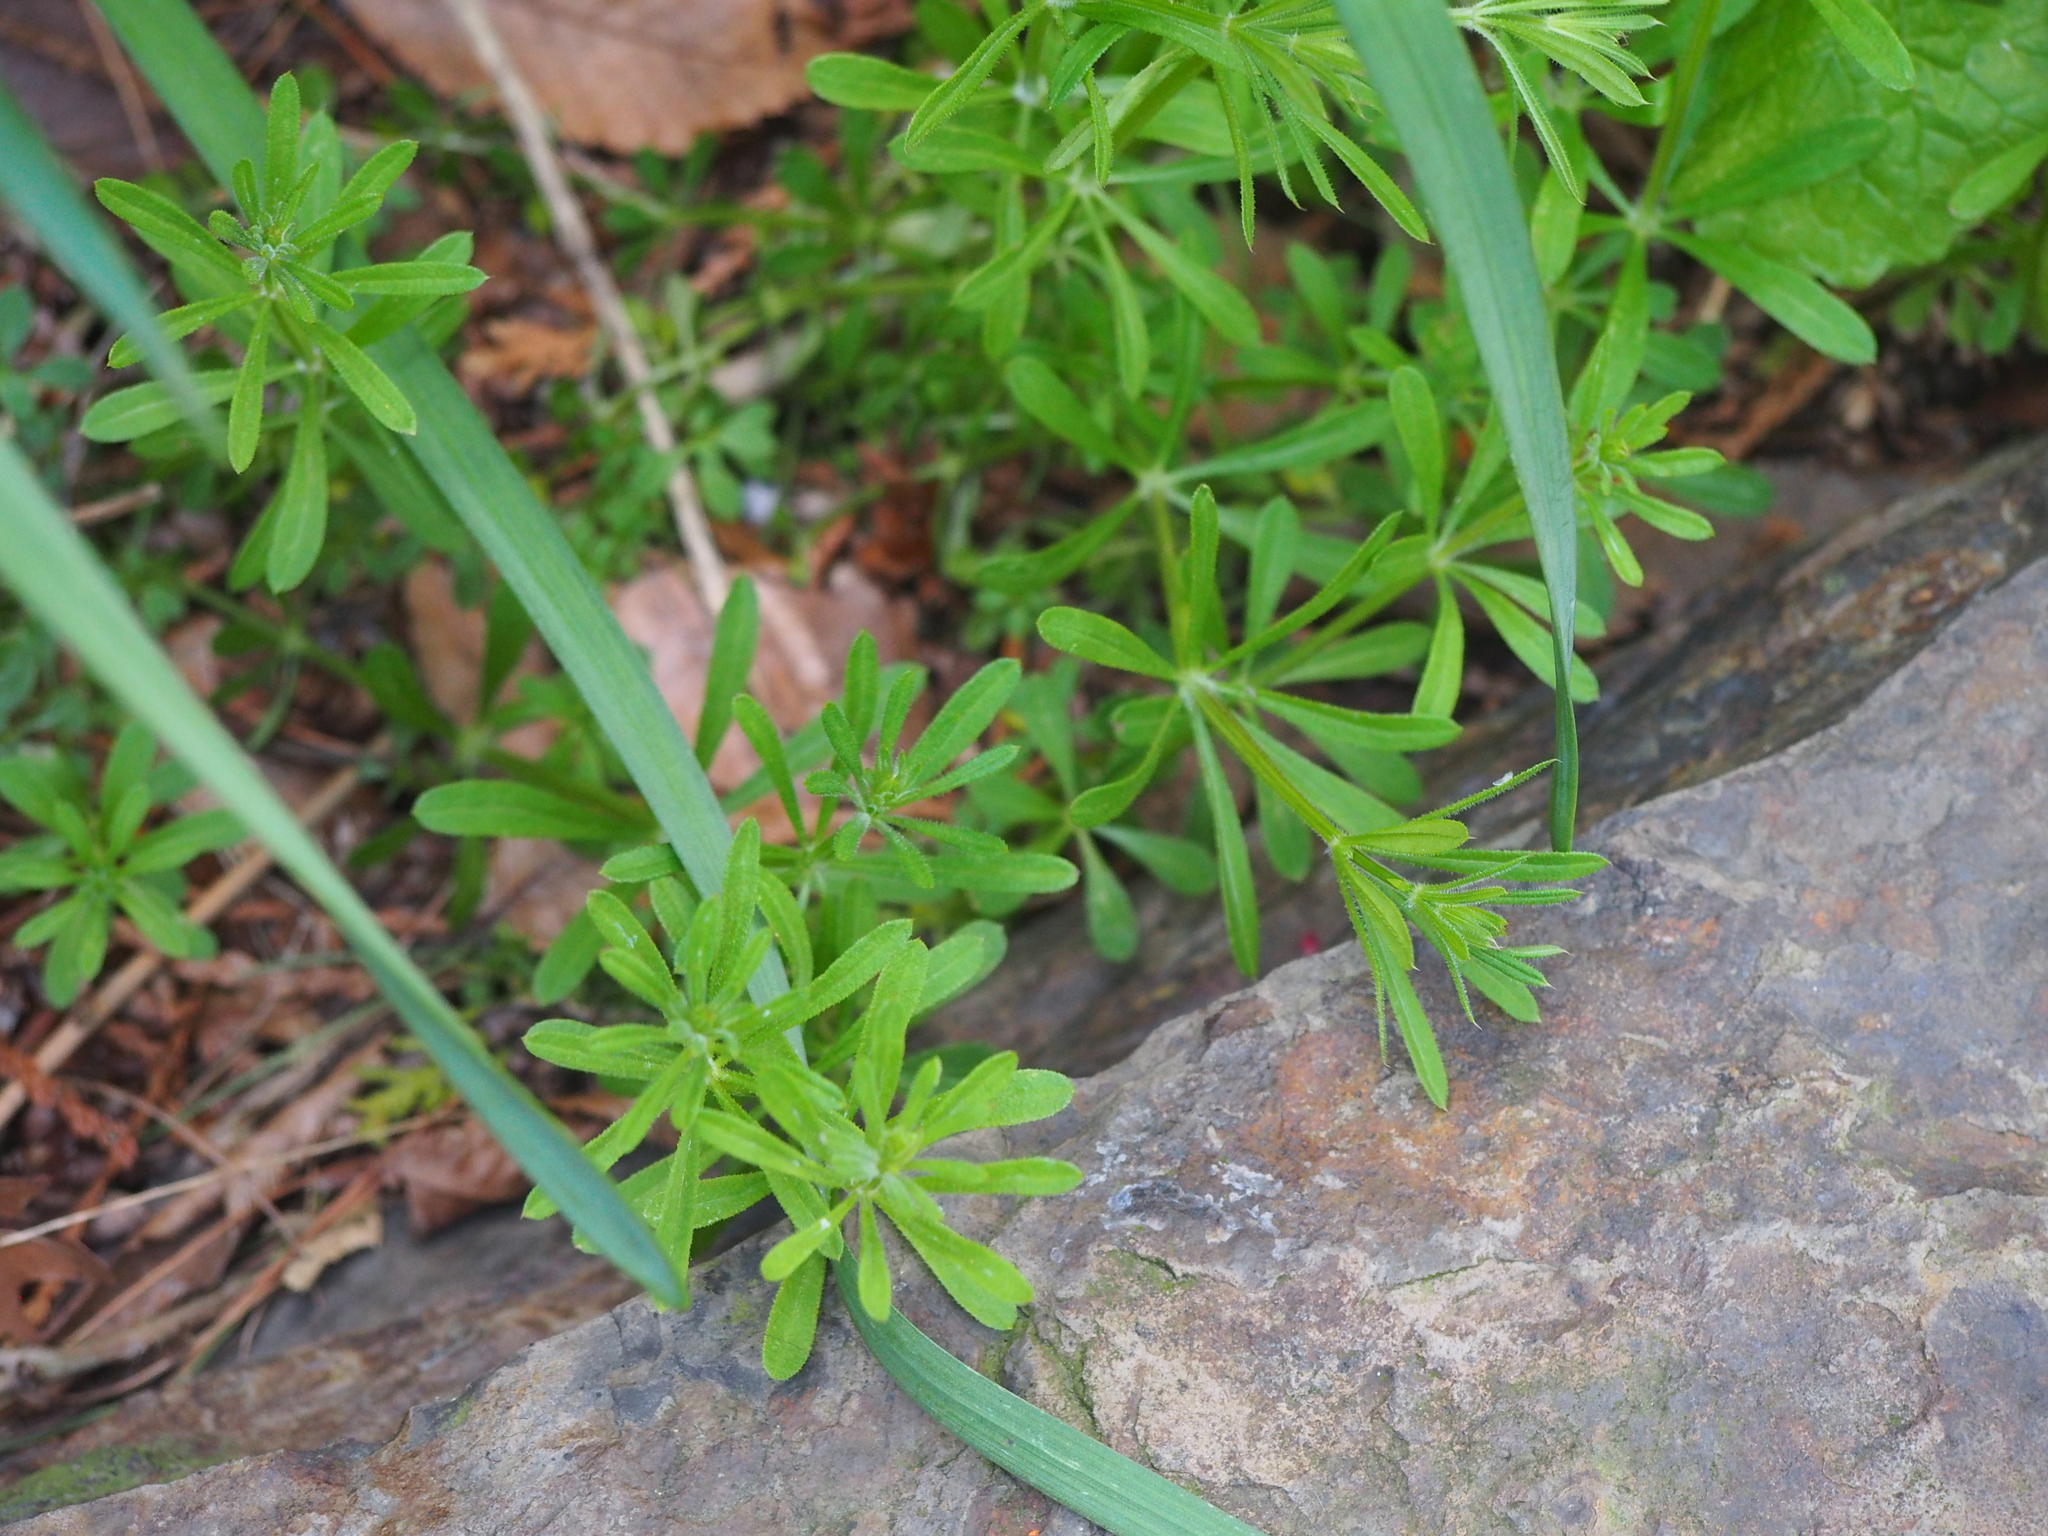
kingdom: Plantae
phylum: Tracheophyta
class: Magnoliopsida
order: Gentianales
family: Rubiaceae
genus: Galium
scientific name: Galium aparine
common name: Cleavers
